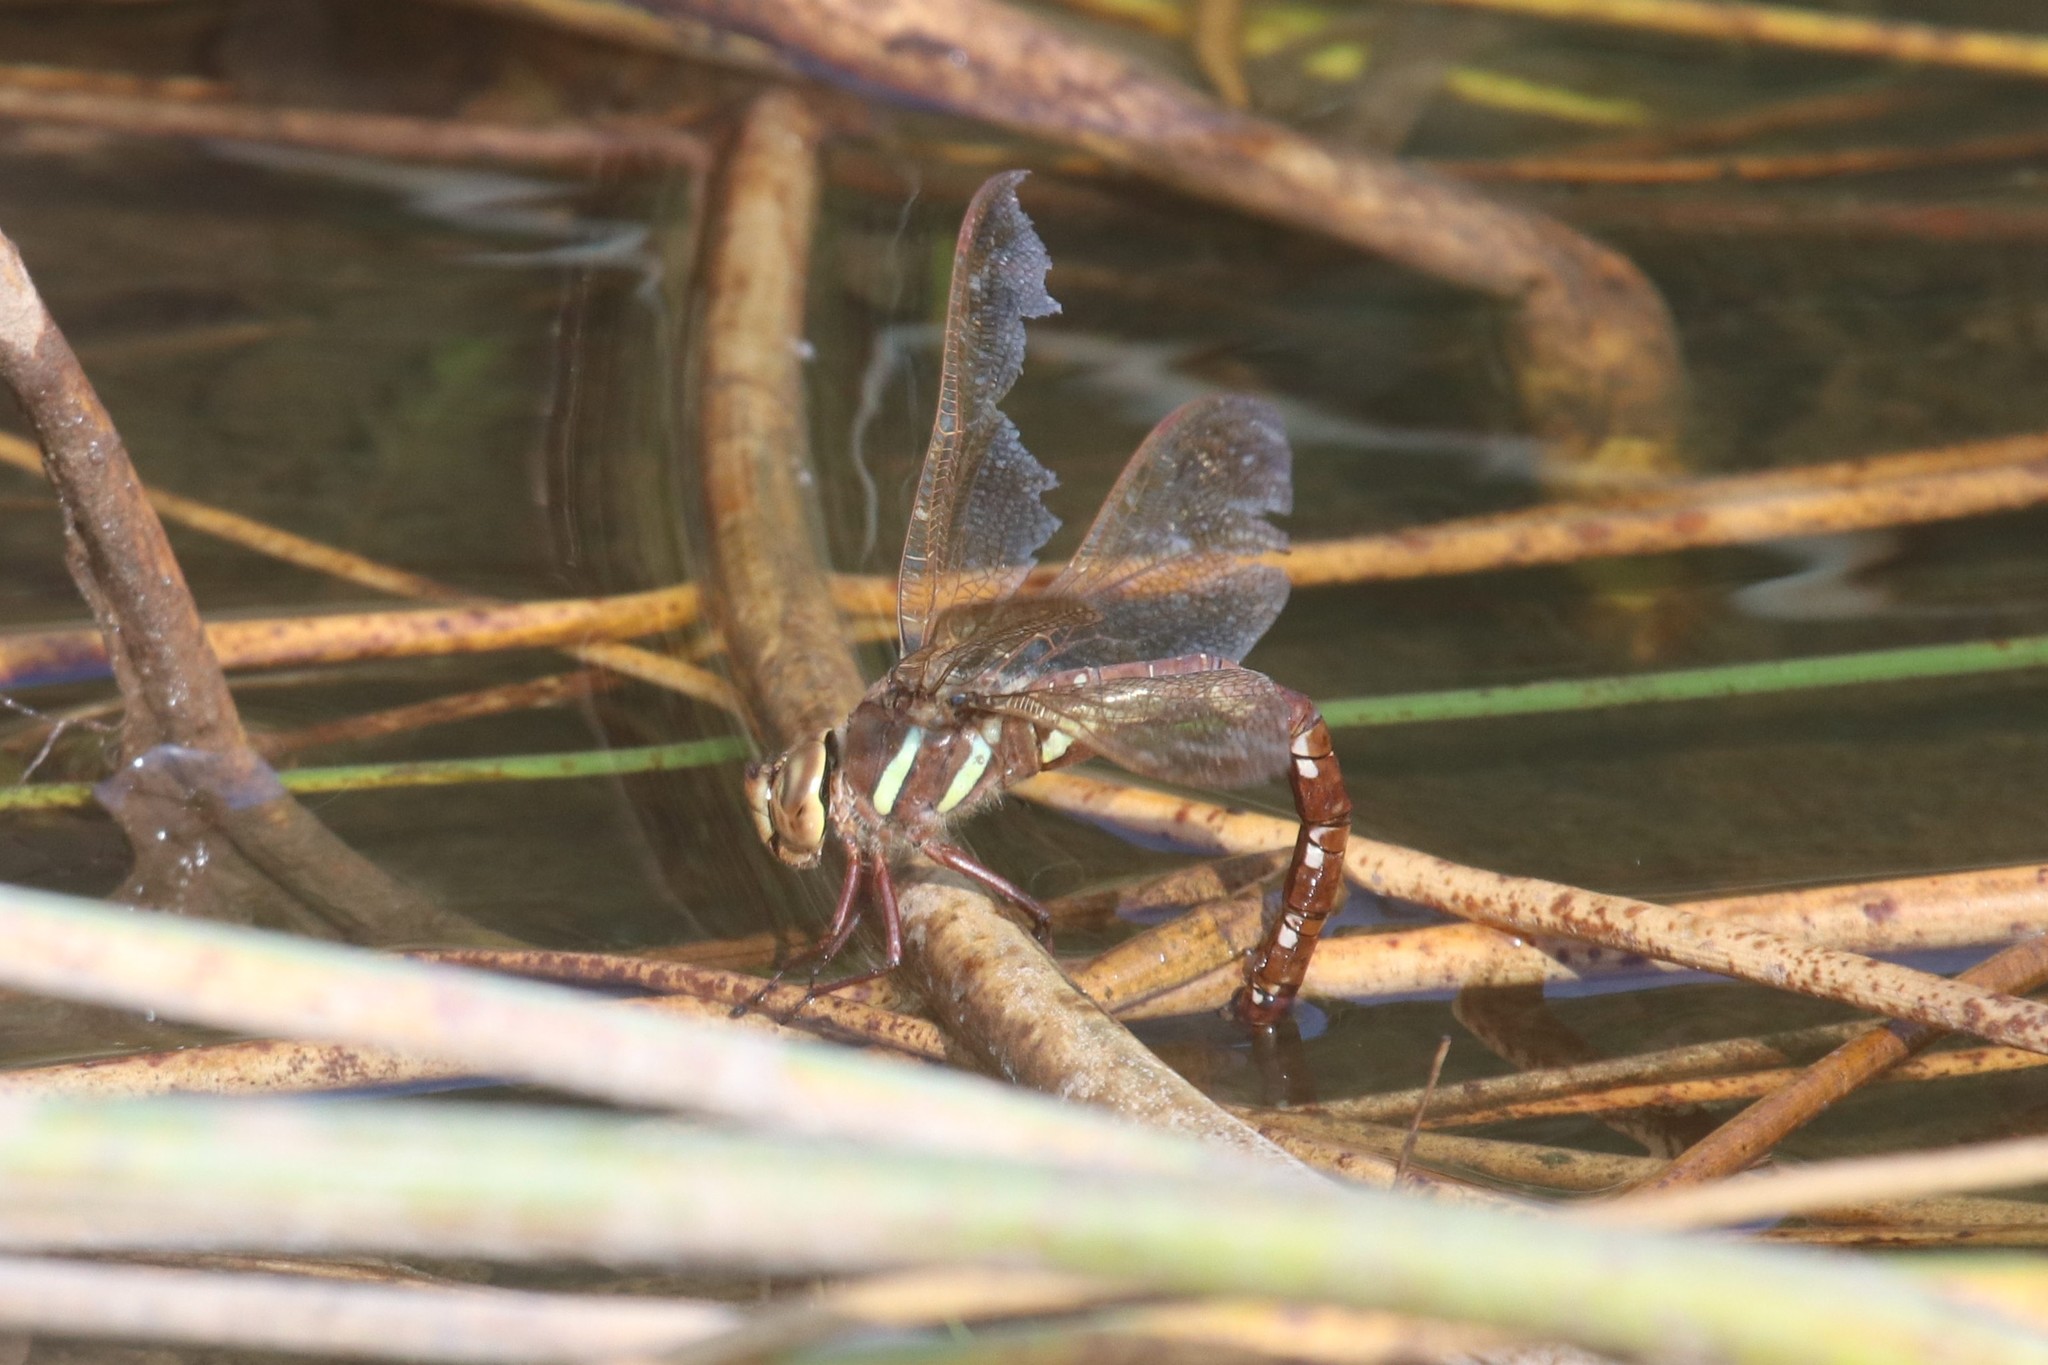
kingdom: Animalia
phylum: Arthropoda
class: Insecta
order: Odonata
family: Aeshnidae
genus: Aeshna
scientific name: Aeshna grandis
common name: Brown hawker
